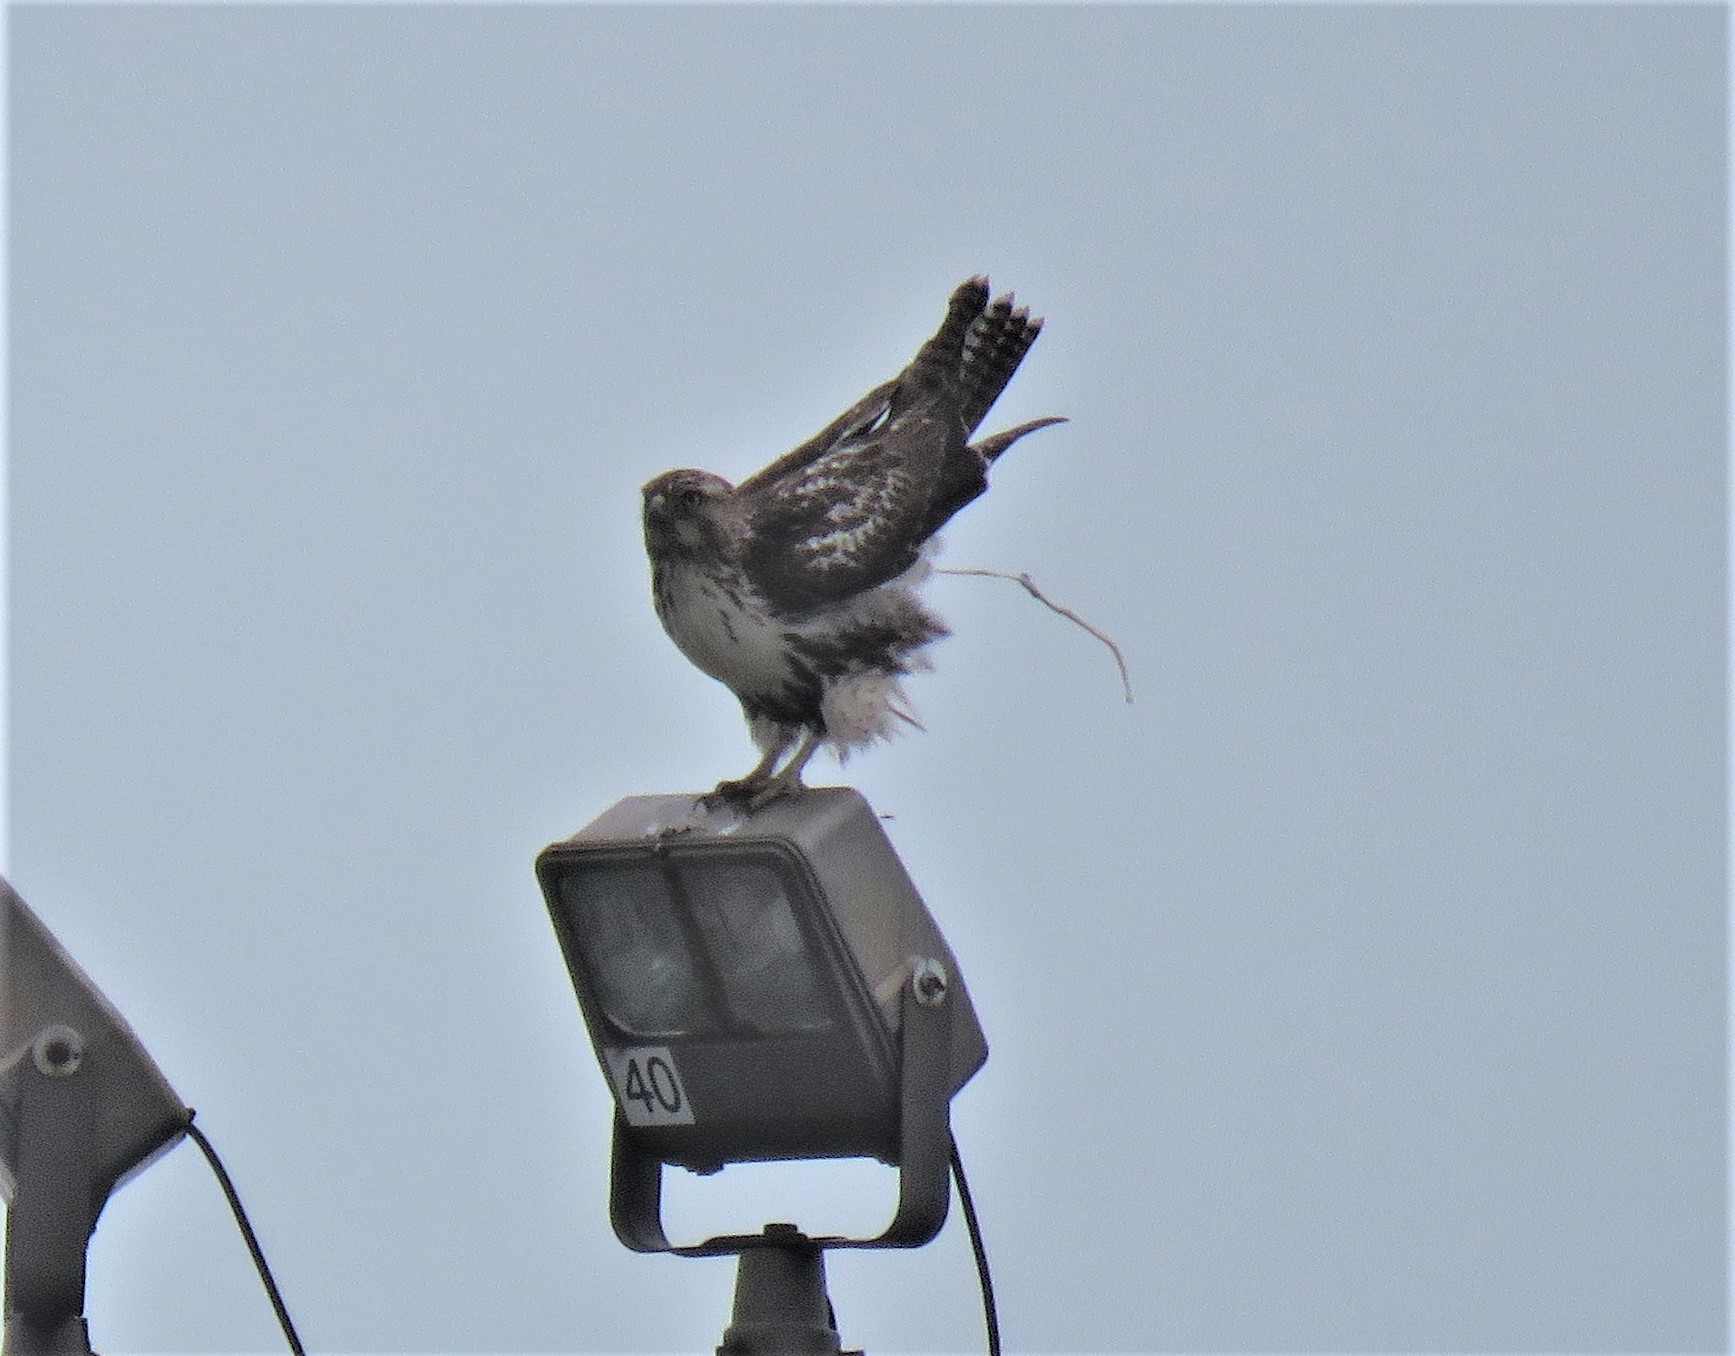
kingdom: Animalia
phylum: Chordata
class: Aves
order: Accipitriformes
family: Accipitridae
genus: Buteo
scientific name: Buteo jamaicensis
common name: Red-tailed hawk
